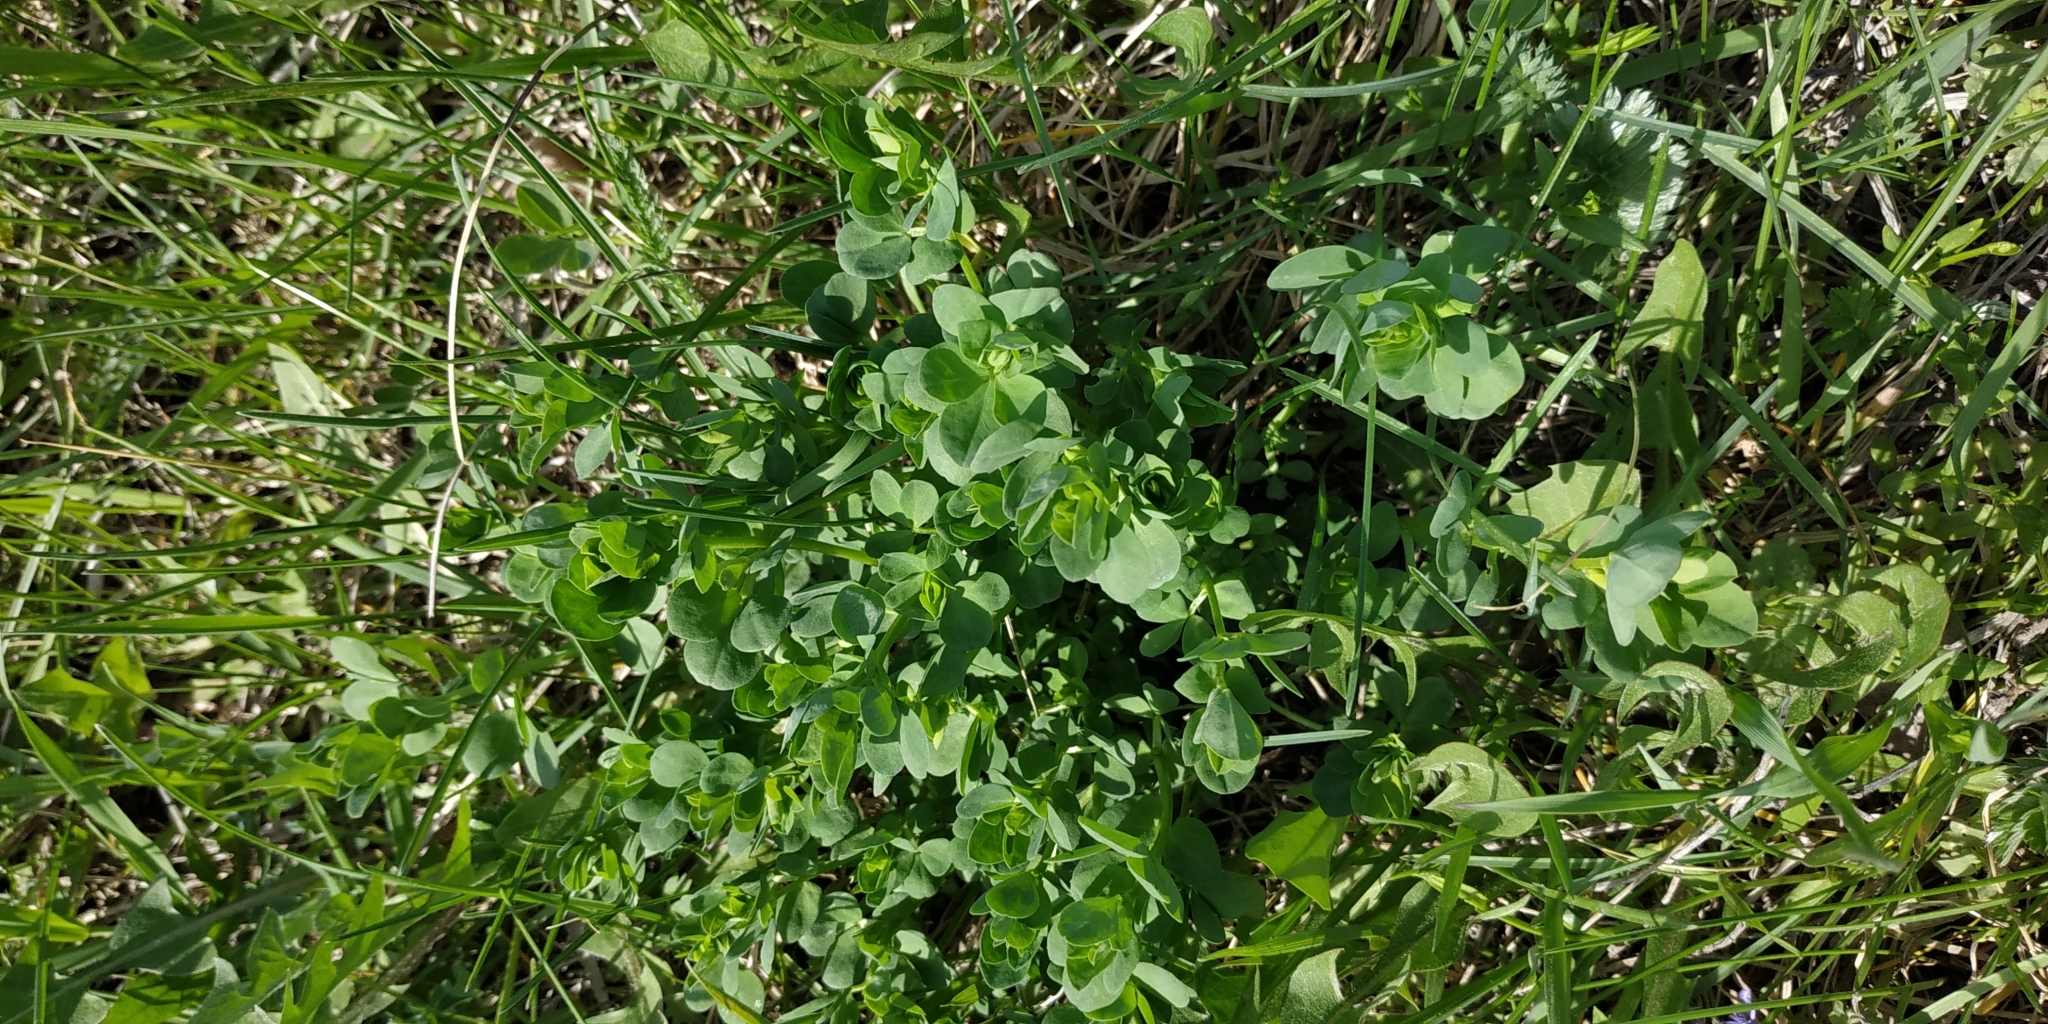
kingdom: Plantae
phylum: Tracheophyta
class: Magnoliopsida
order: Fabales
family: Fabaceae
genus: Lotus
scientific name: Lotus corniculatus
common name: Common bird's-foot-trefoil
